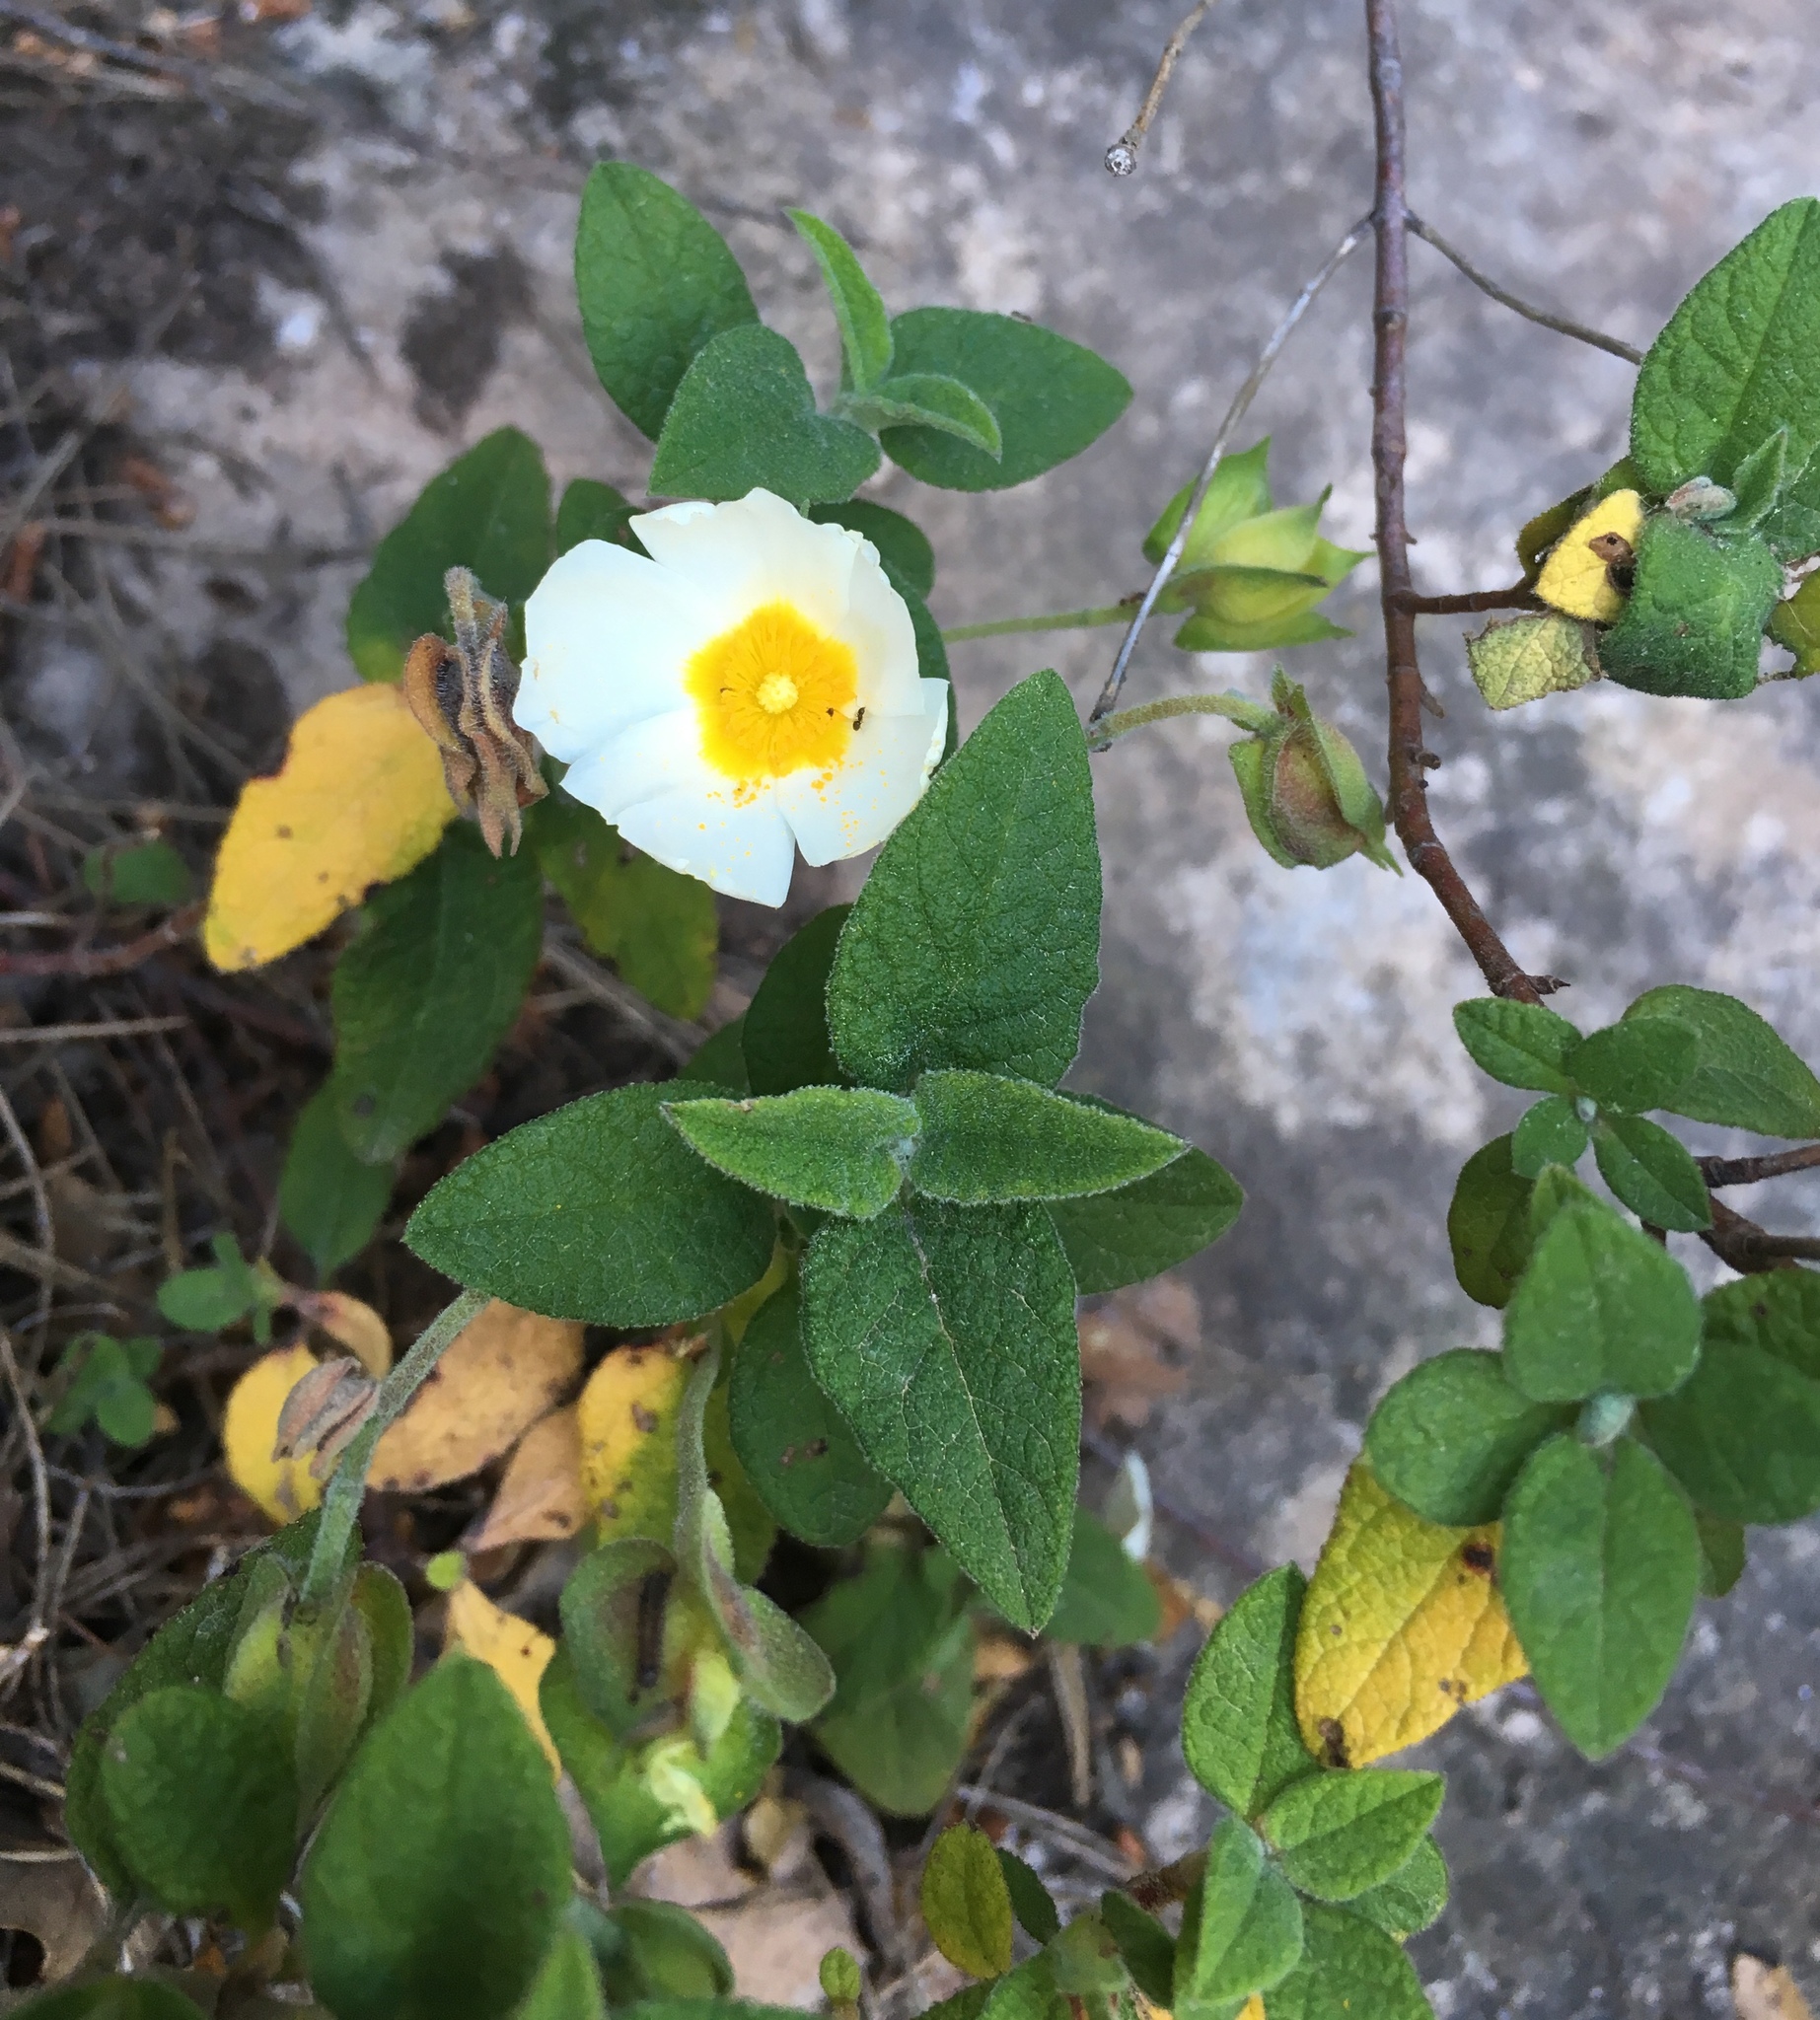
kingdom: Plantae
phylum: Tracheophyta
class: Magnoliopsida
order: Malvales
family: Cistaceae
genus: Cistus
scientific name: Cistus salviifolius
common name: Salvia cistus
